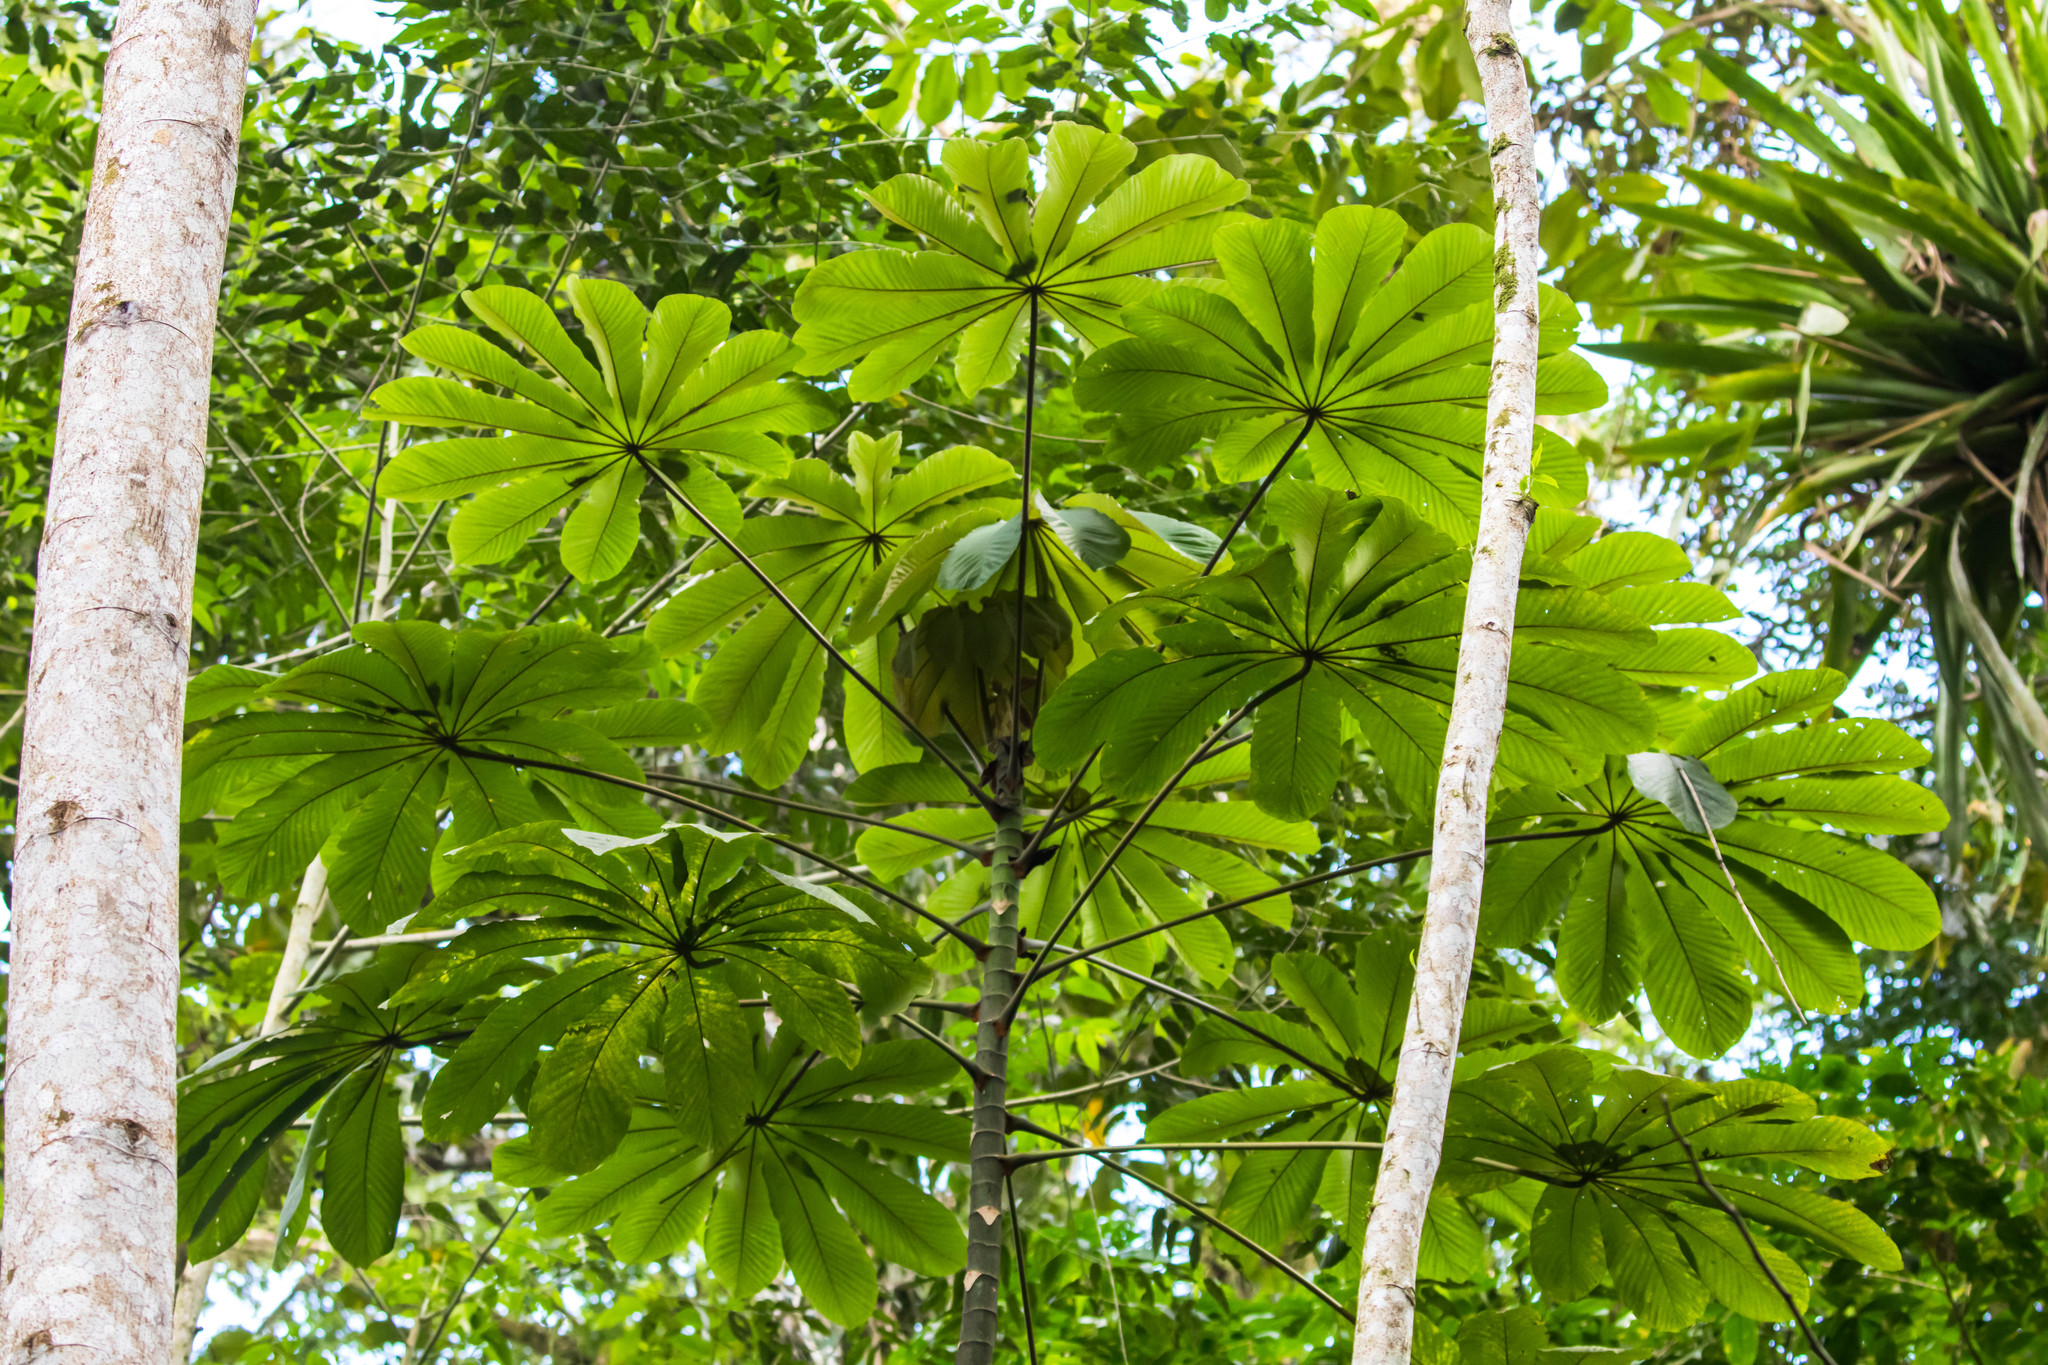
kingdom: Plantae
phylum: Tracheophyta
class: Magnoliopsida
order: Rosales
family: Urticaceae
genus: Cecropia
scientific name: Cecropia obtusifolia
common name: Trumpet tree
